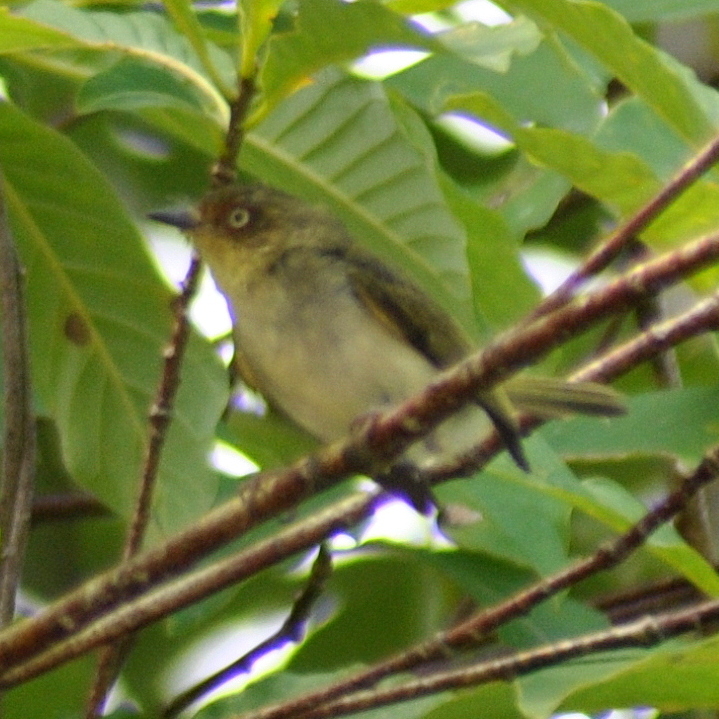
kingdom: Animalia
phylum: Chordata
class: Aves
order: Passeriformes
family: Tyrannidae
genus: Phylloscartes
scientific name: Phylloscartes sylviolus
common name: Bay-ringed tyrannulet
